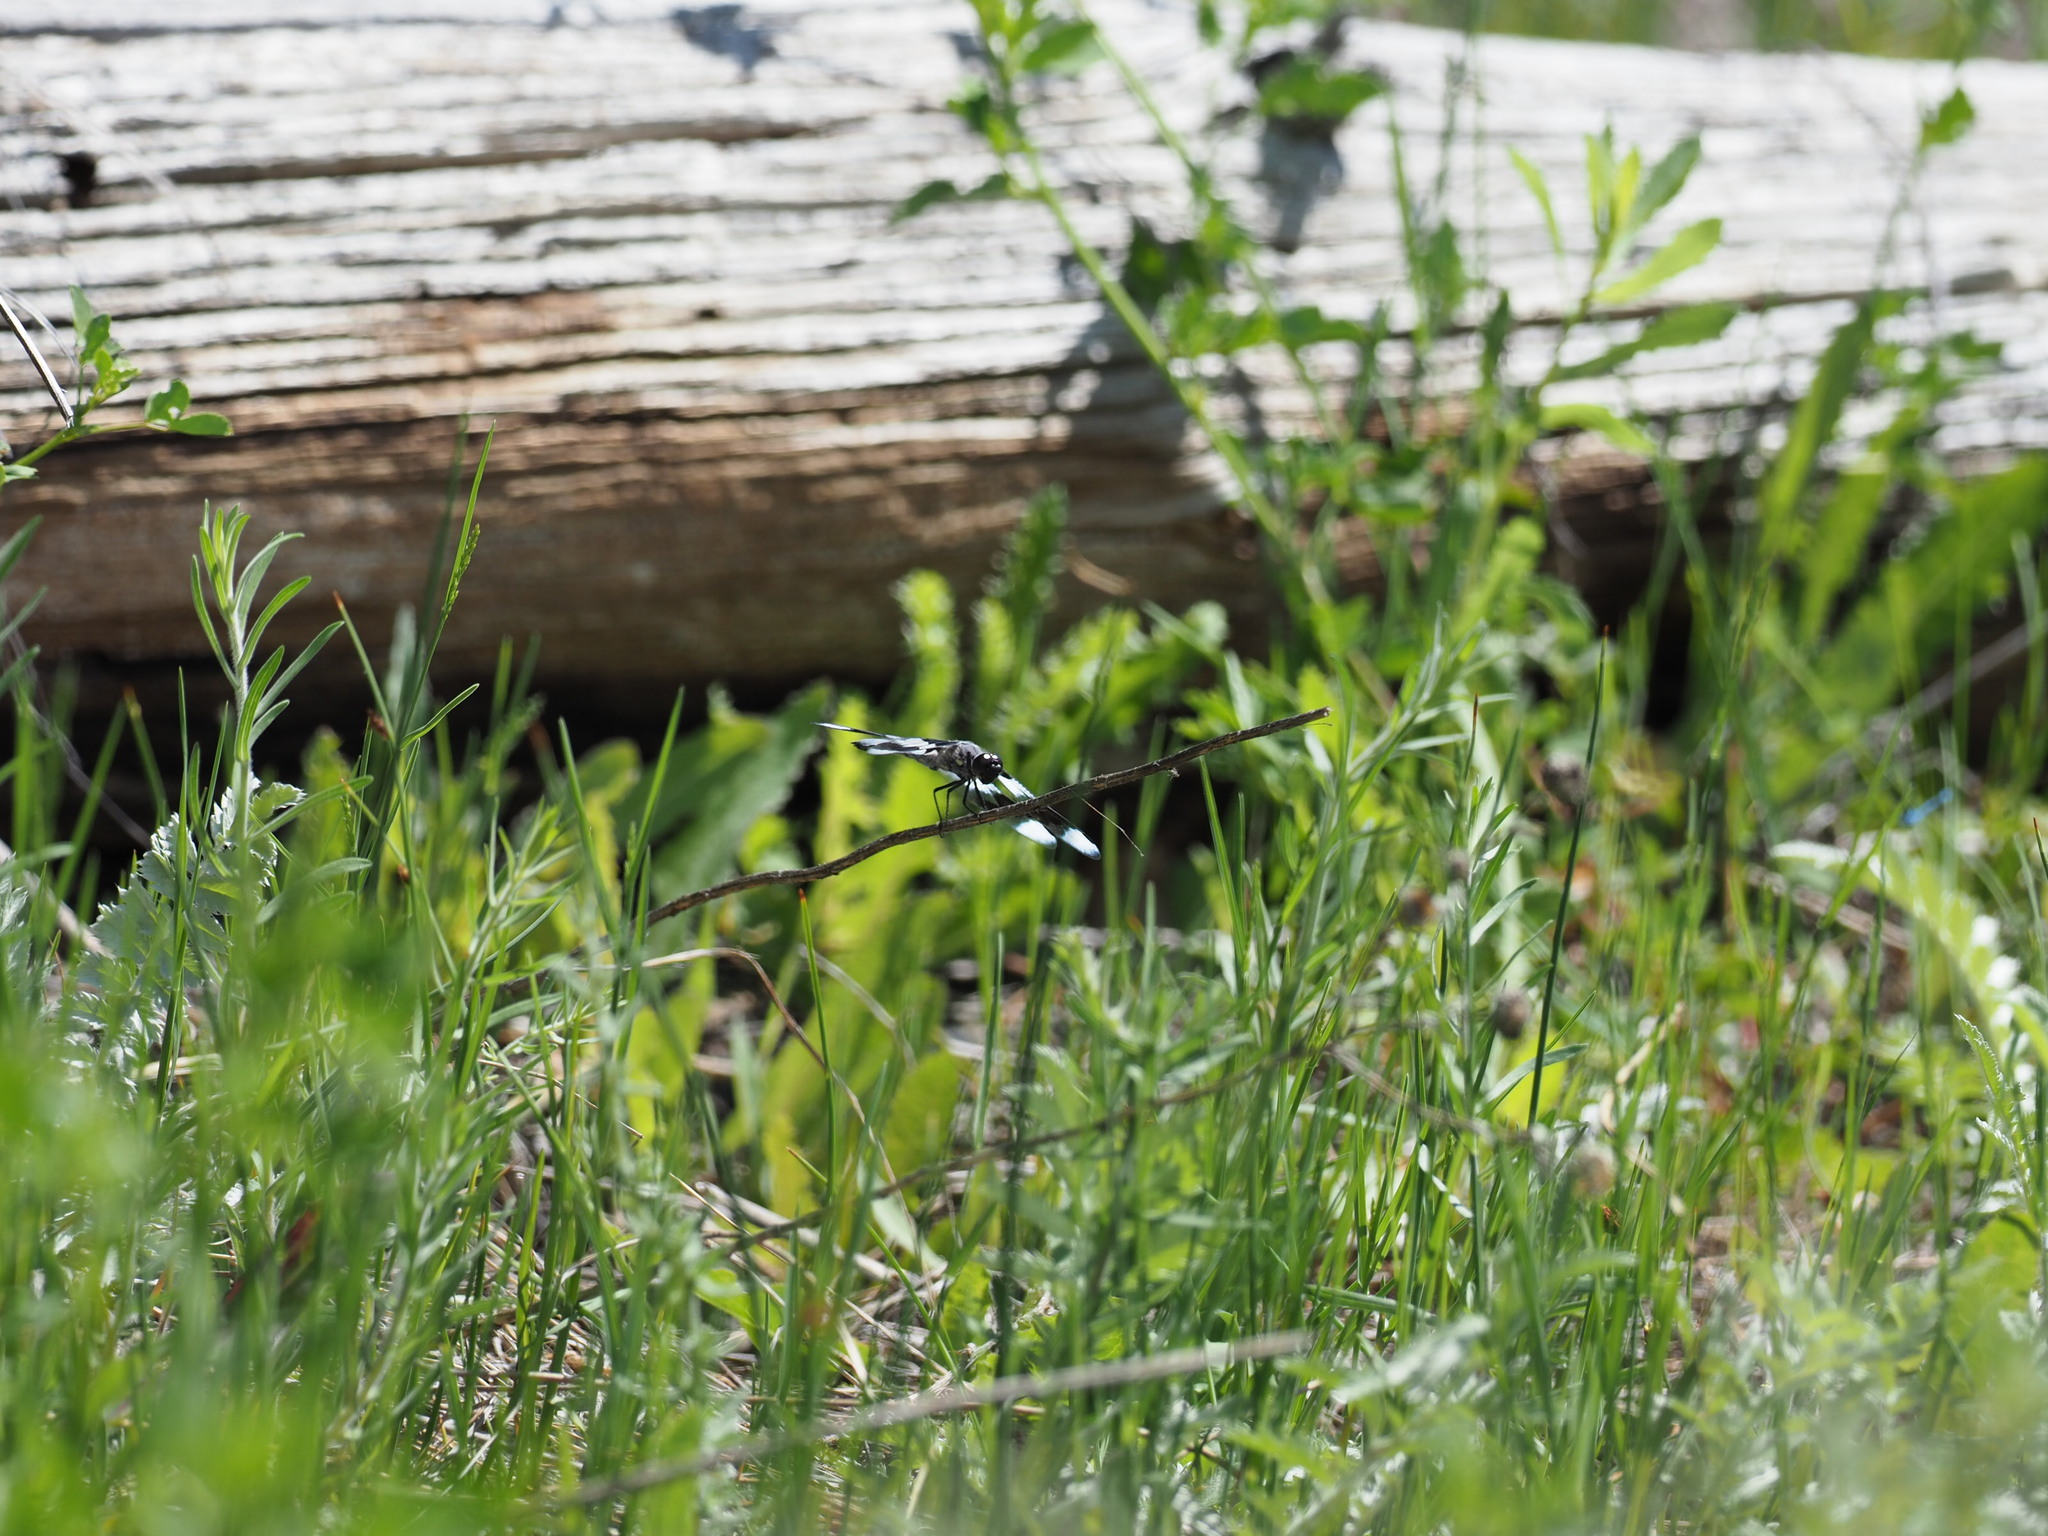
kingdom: Animalia
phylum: Arthropoda
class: Insecta
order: Odonata
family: Libellulidae
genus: Libellula
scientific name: Libellula forensis
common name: Eight-spotted skimmer
